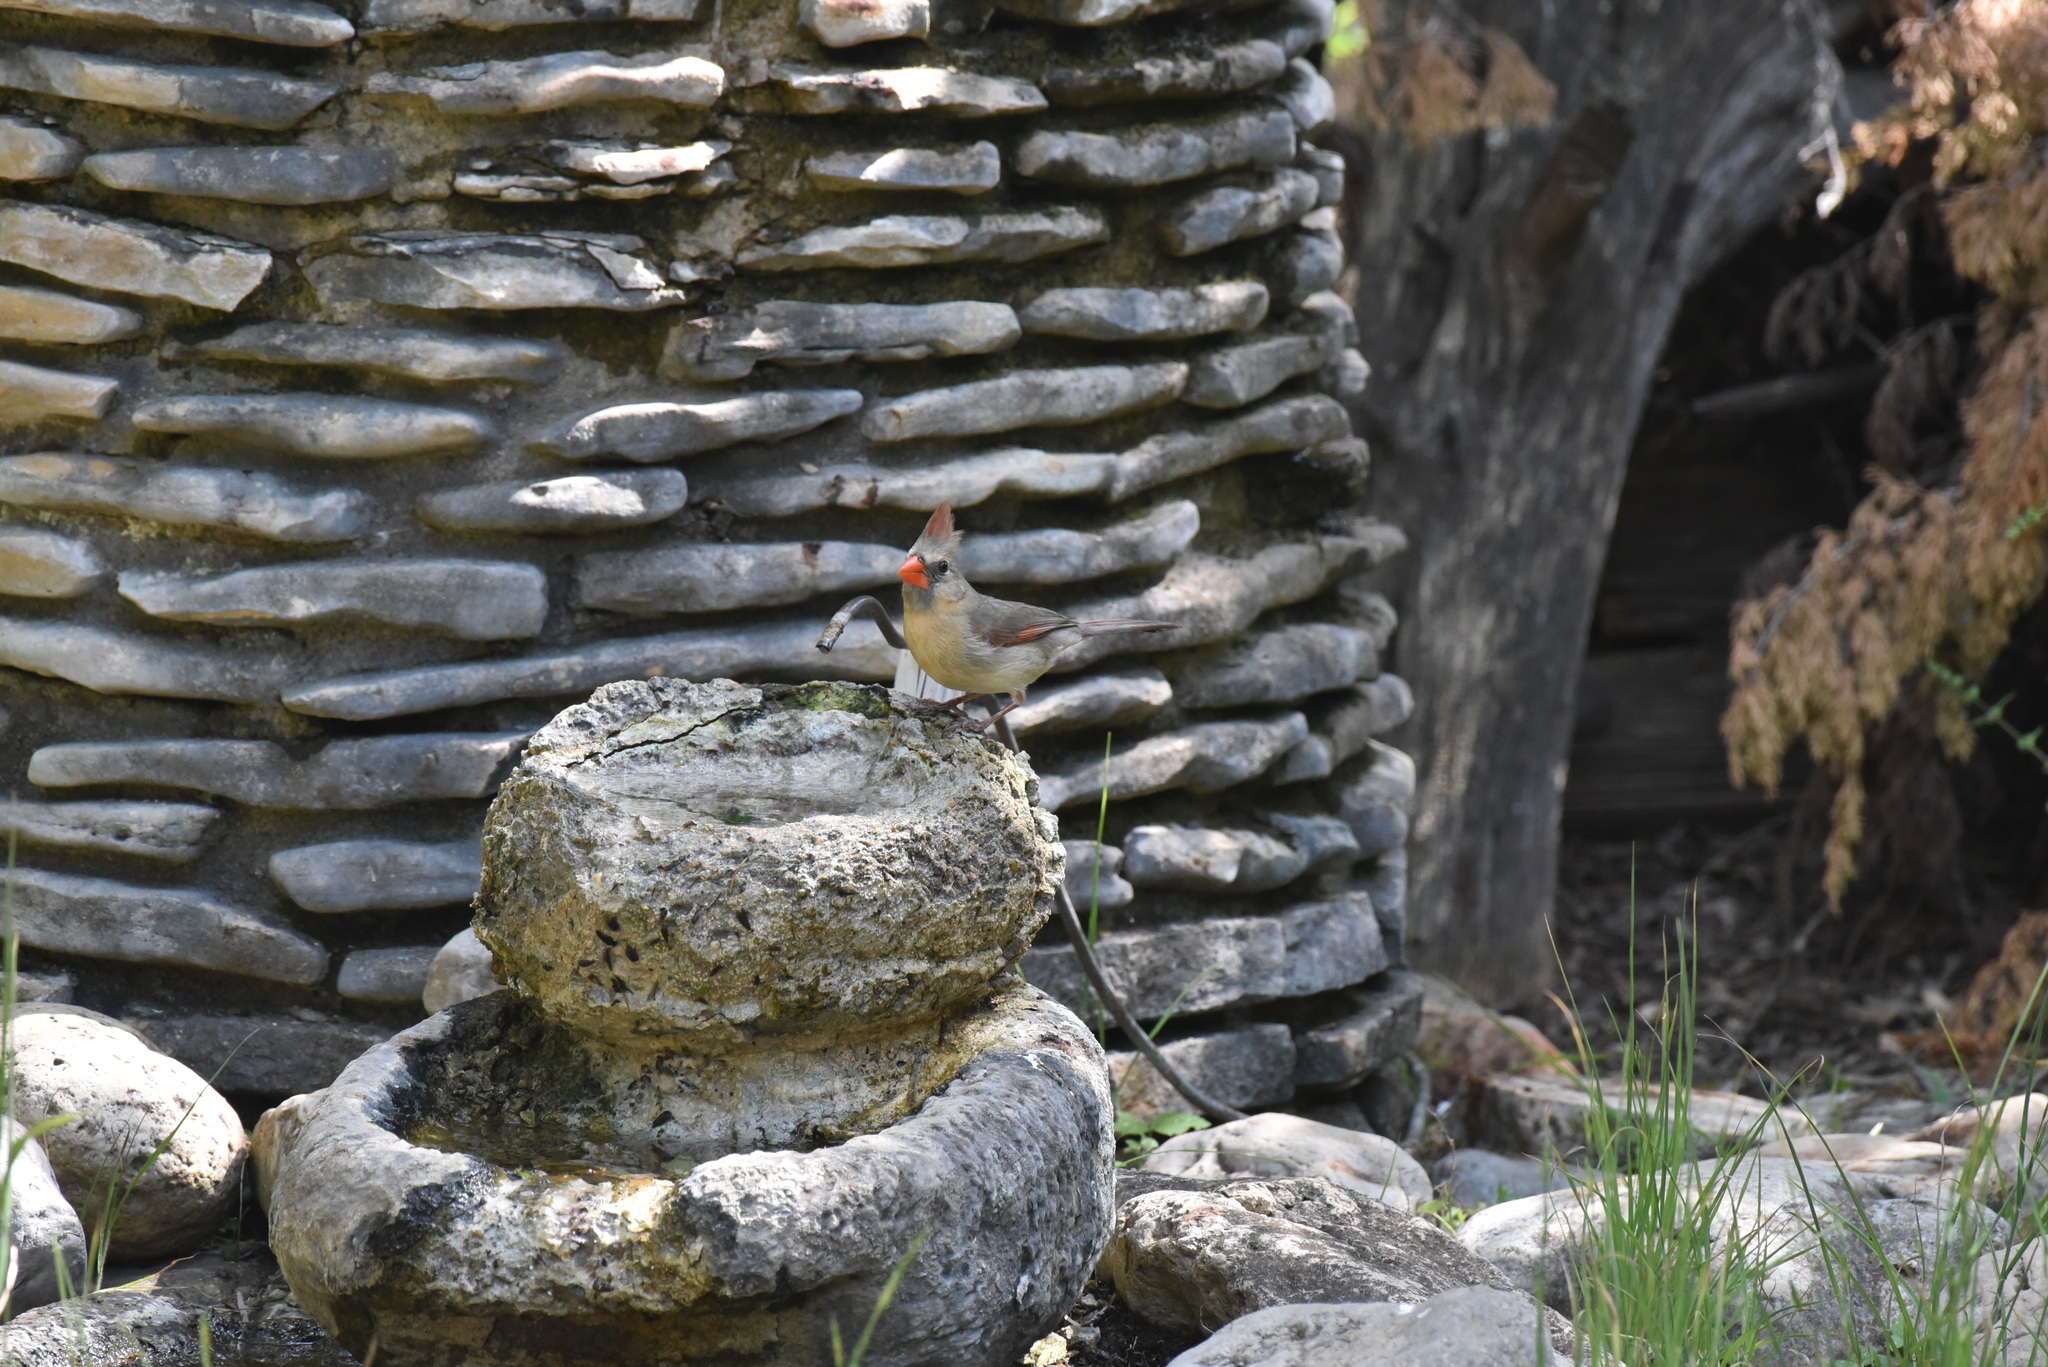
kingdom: Animalia
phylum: Chordata
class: Aves
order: Passeriformes
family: Cardinalidae
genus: Cardinalis
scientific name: Cardinalis cardinalis
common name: Northern cardinal
